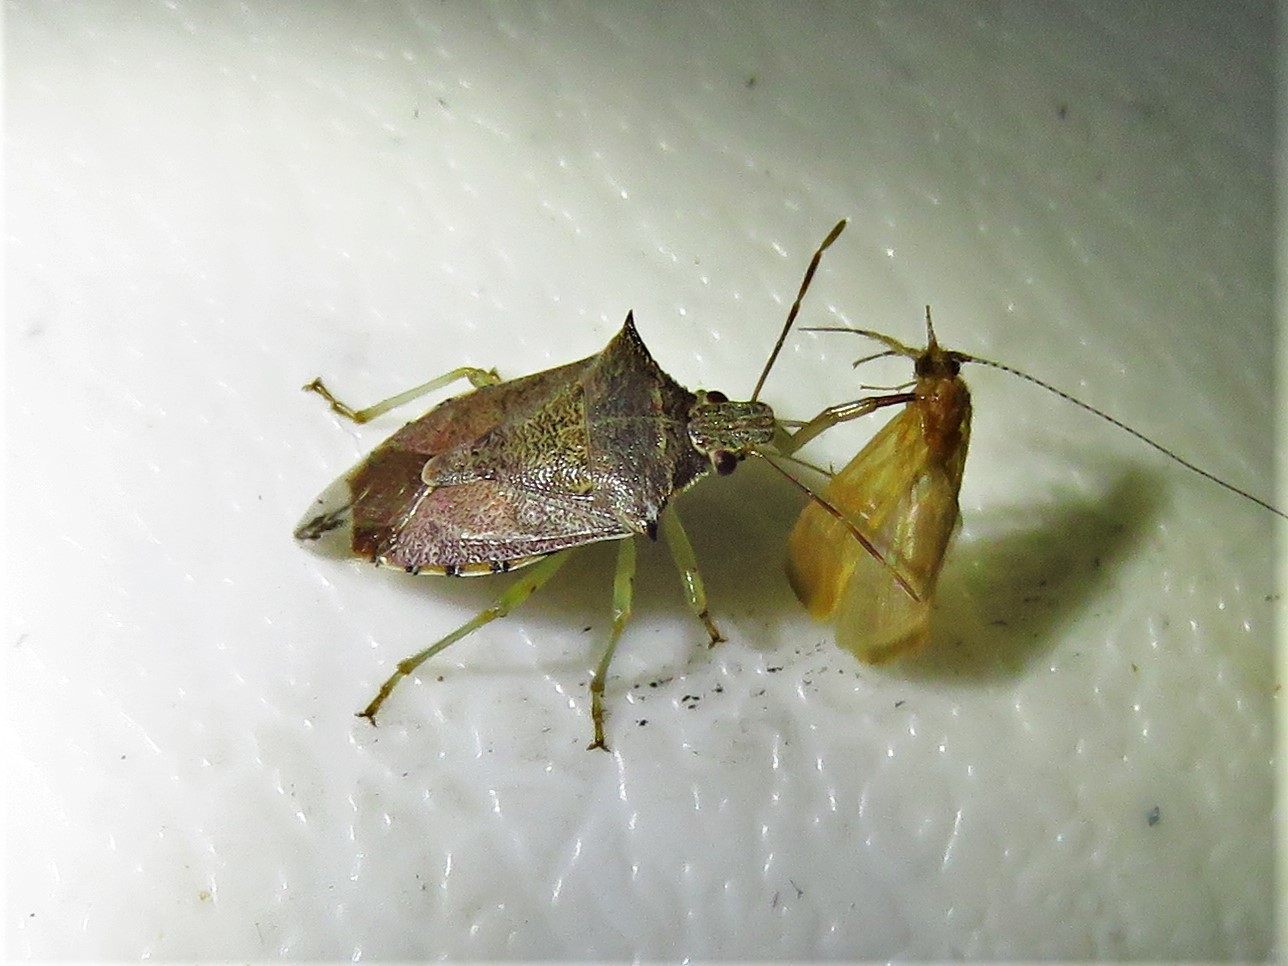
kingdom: Animalia
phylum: Arthropoda
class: Insecta
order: Hemiptera
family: Pentatomidae
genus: Podisus
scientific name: Podisus maculiventris
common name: Spined soldier bug
